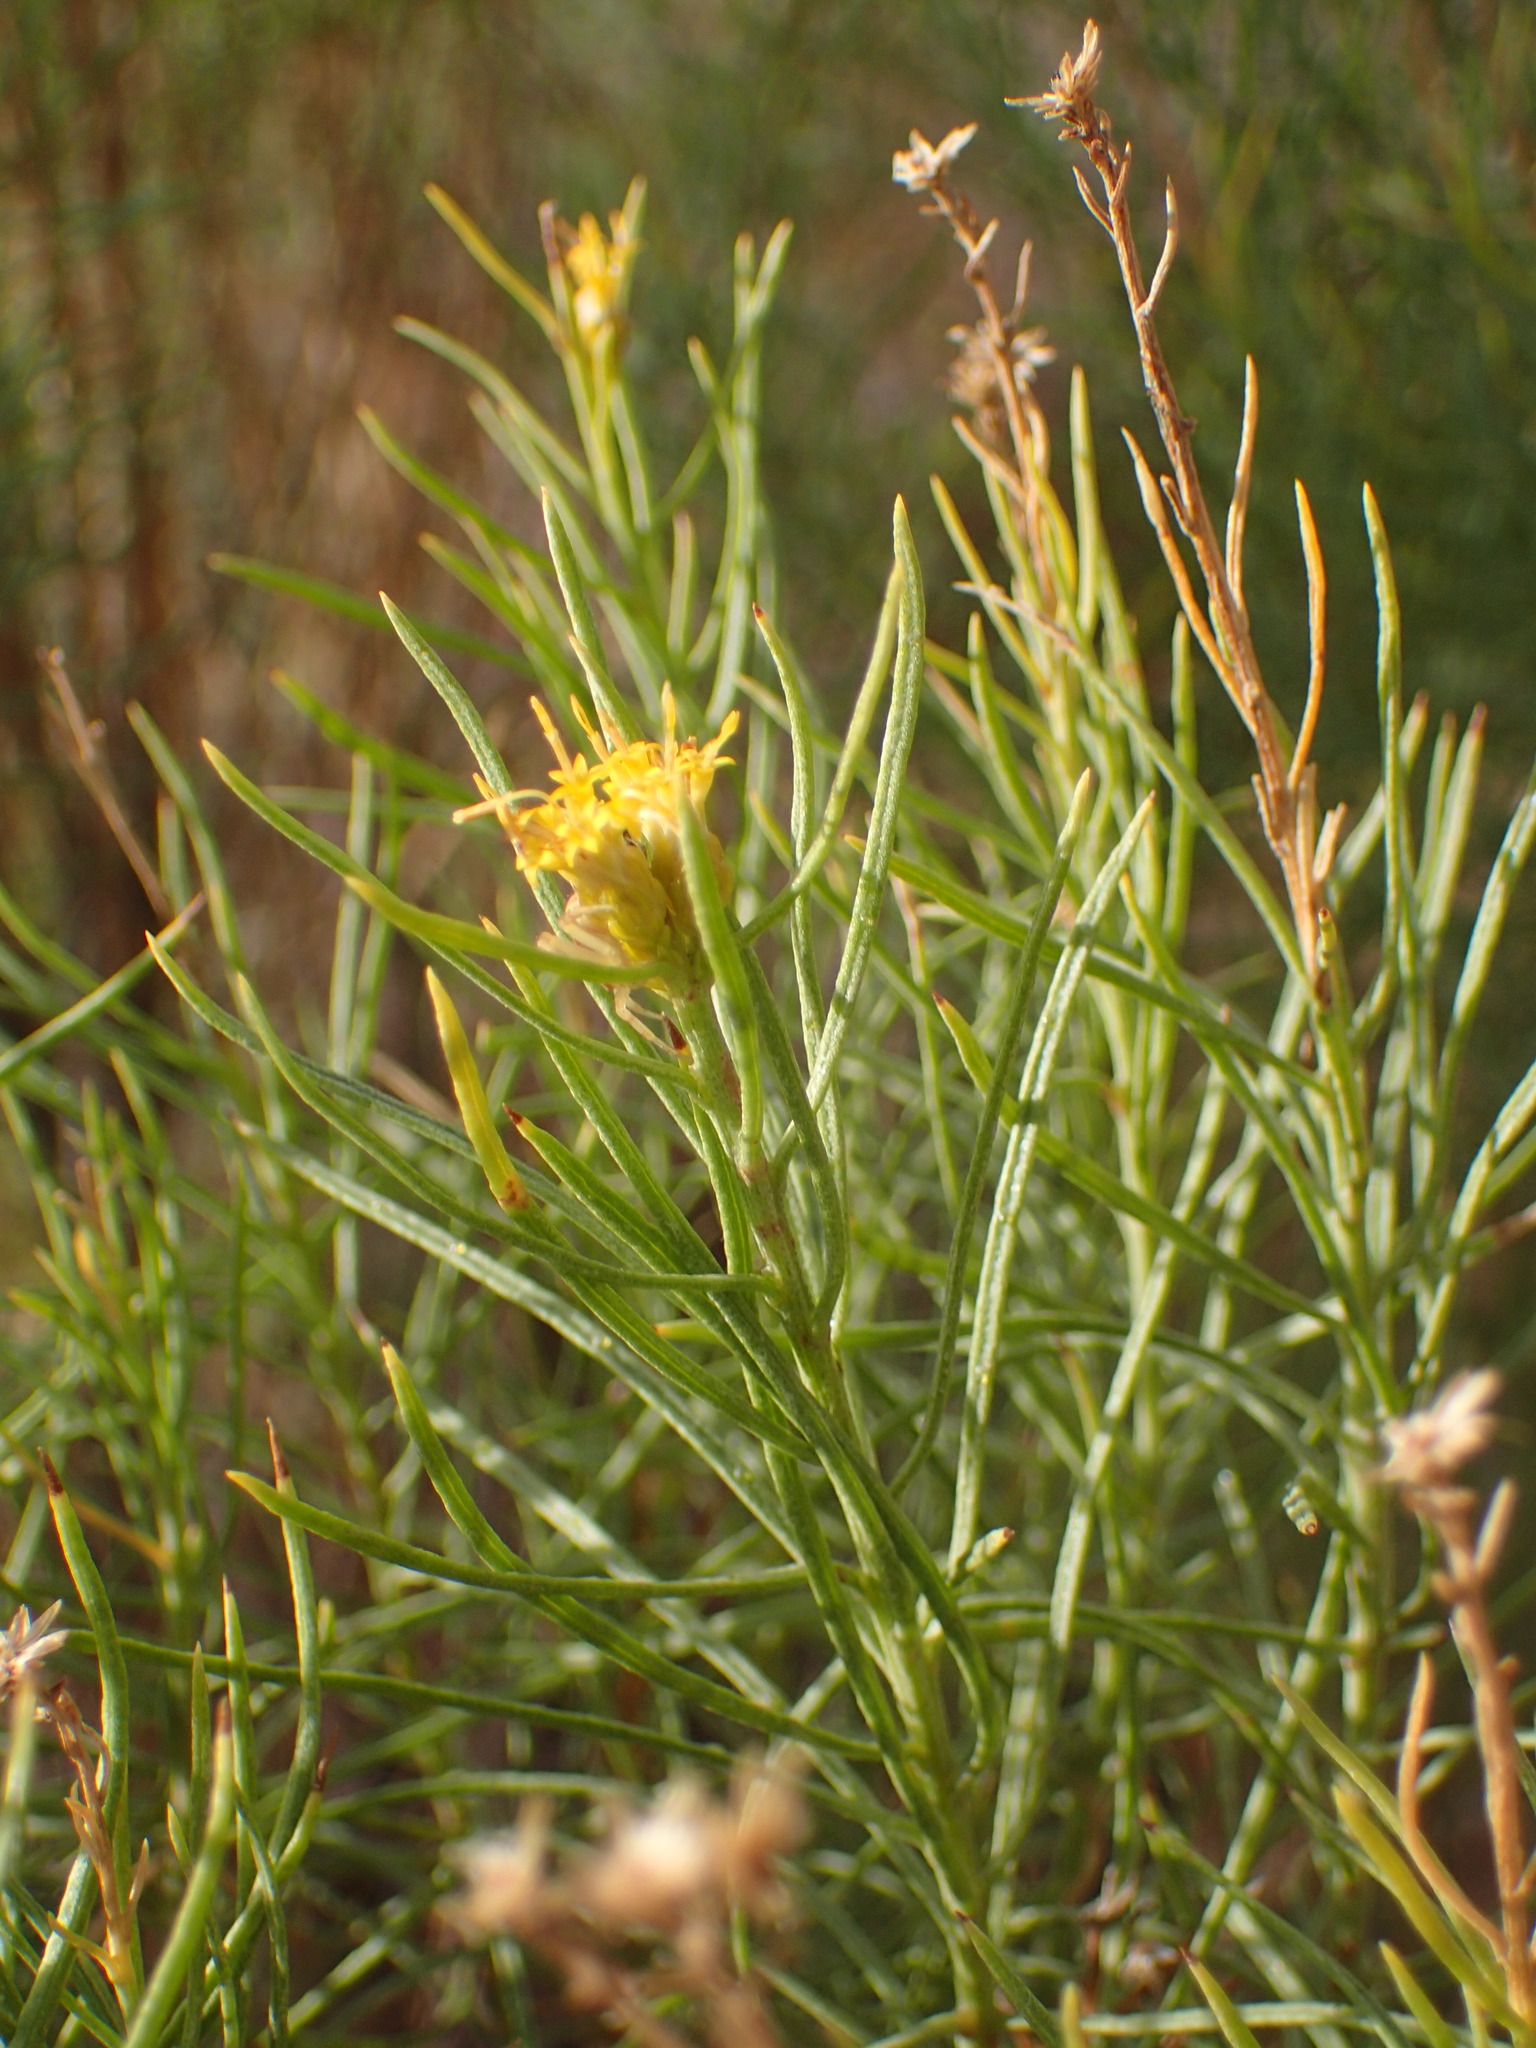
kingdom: Plantae
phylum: Tracheophyta
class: Magnoliopsida
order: Asterales
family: Asteraceae
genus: Ericameria
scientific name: Ericameria arborescens
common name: Goldenfleece
